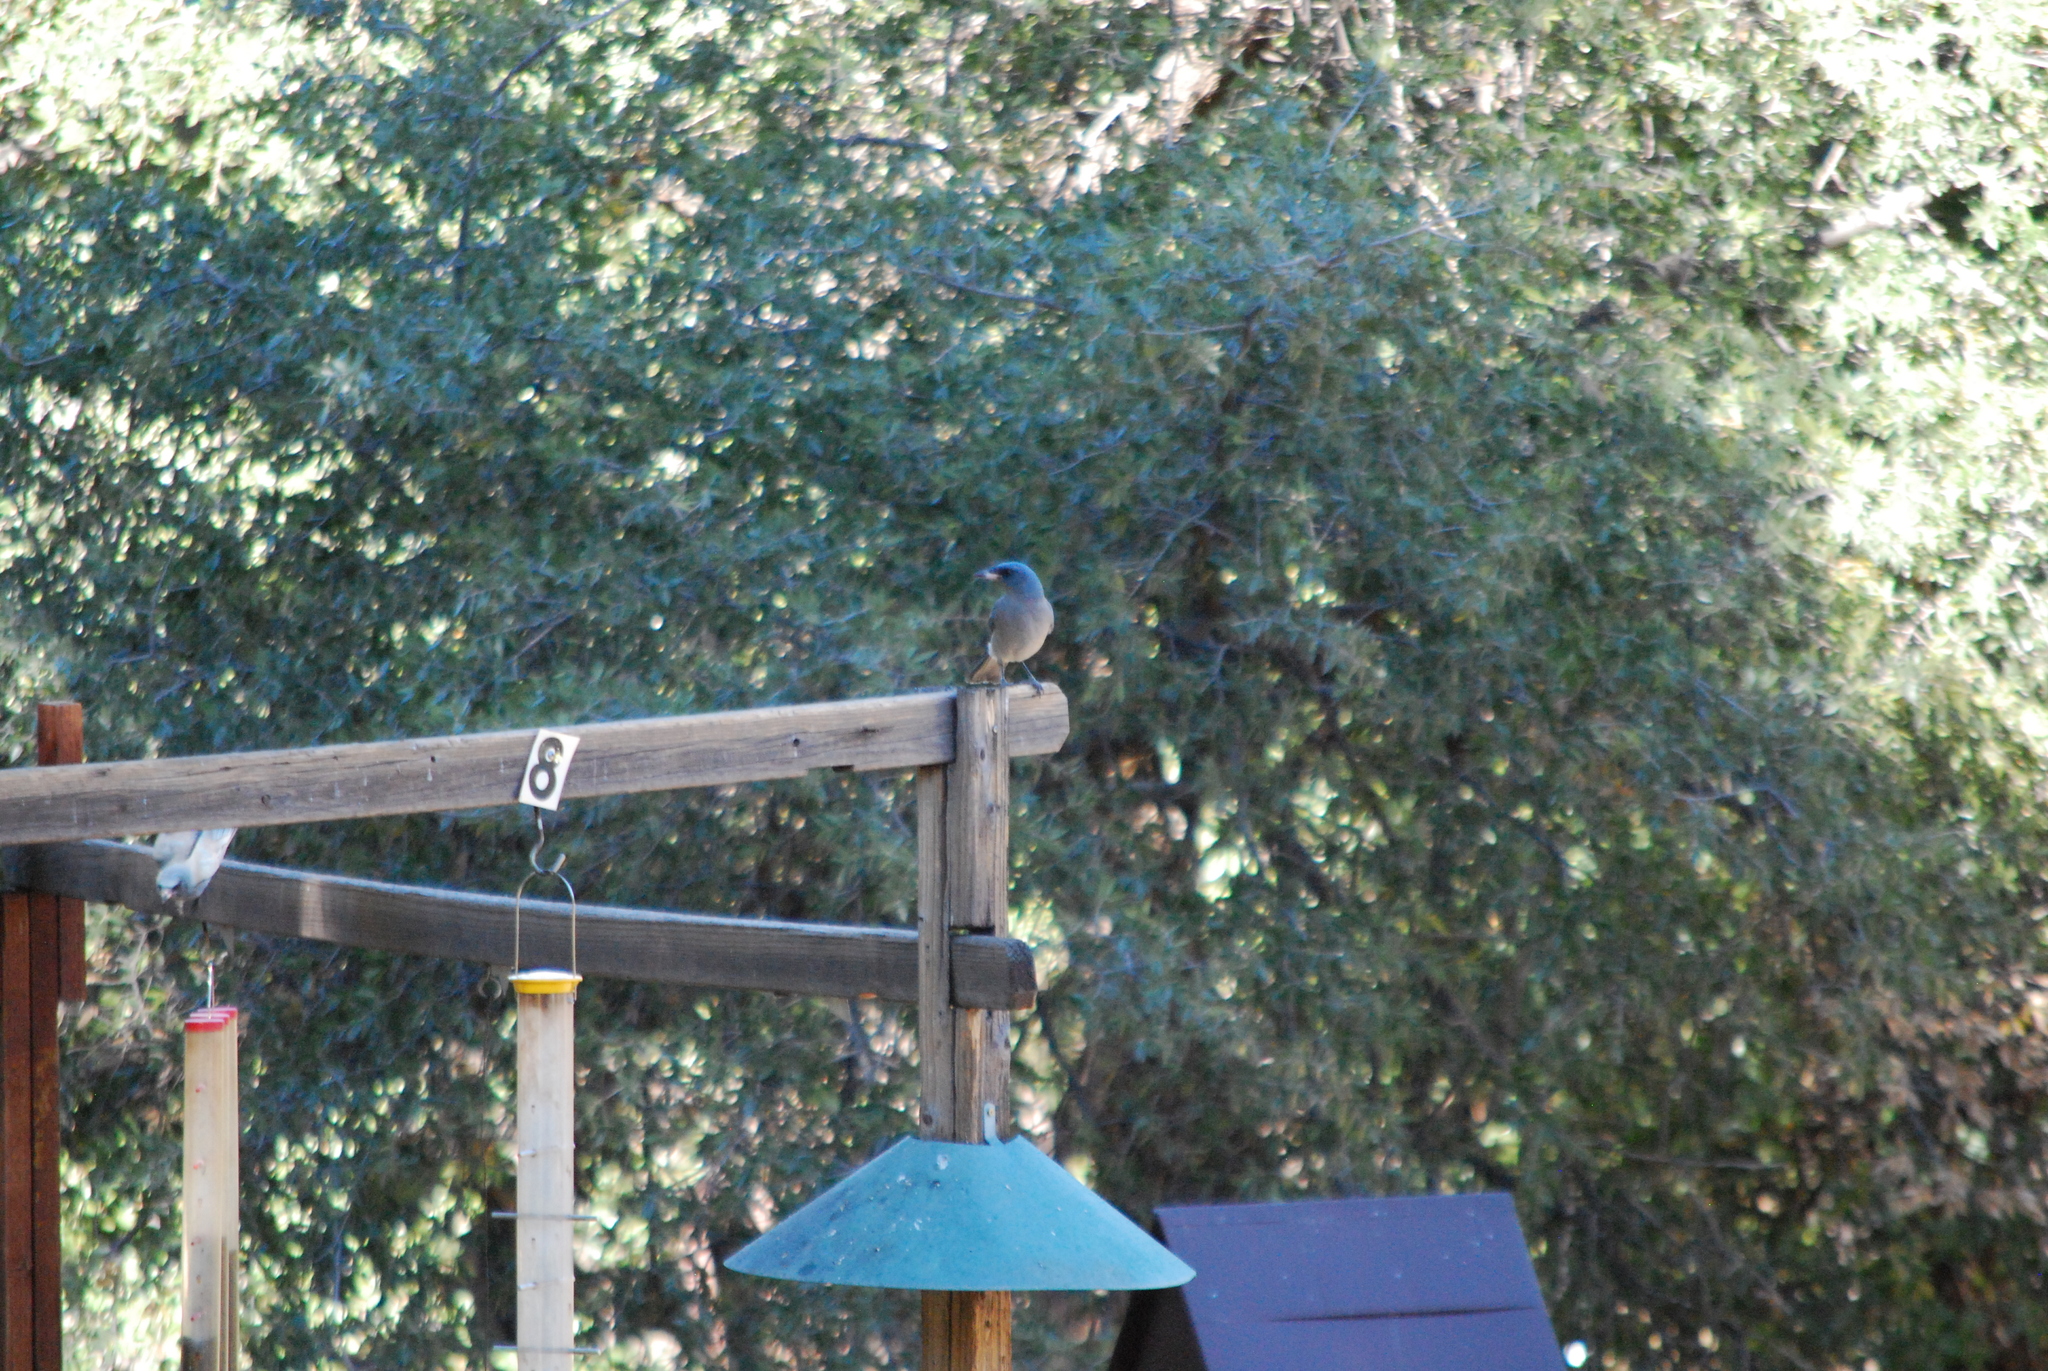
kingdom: Animalia
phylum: Chordata
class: Aves
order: Passeriformes
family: Corvidae
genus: Aphelocoma
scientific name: Aphelocoma wollweberi
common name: Mexican jay
